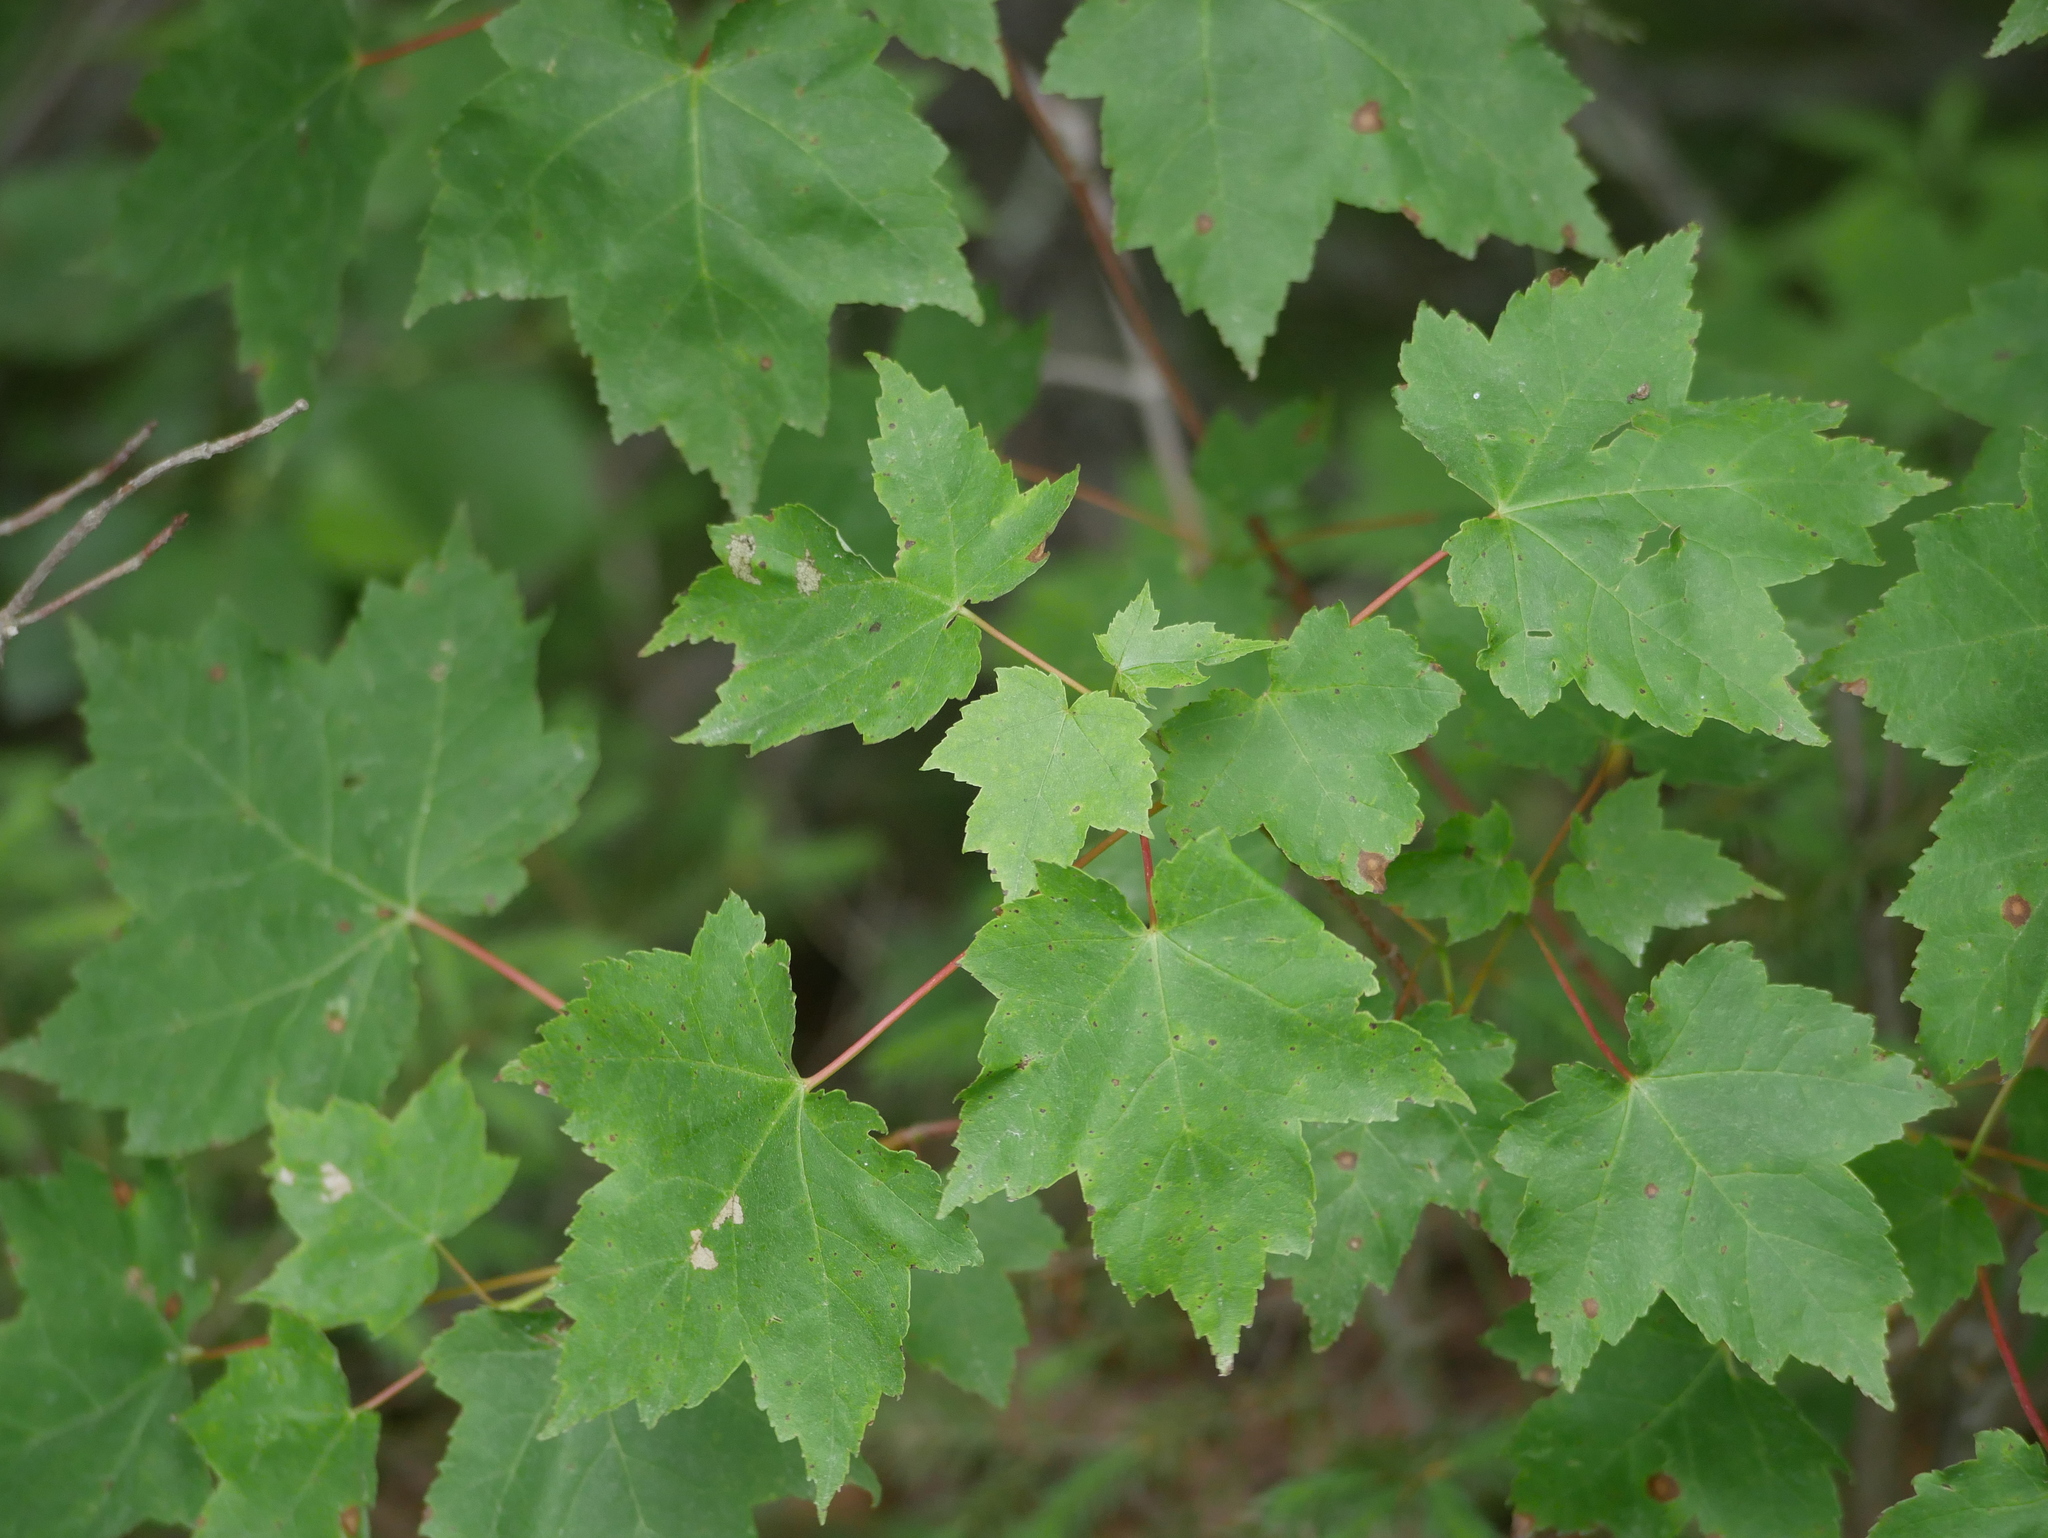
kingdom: Plantae
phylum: Tracheophyta
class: Magnoliopsida
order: Sapindales
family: Sapindaceae
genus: Acer
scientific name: Acer rubrum
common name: Red maple
